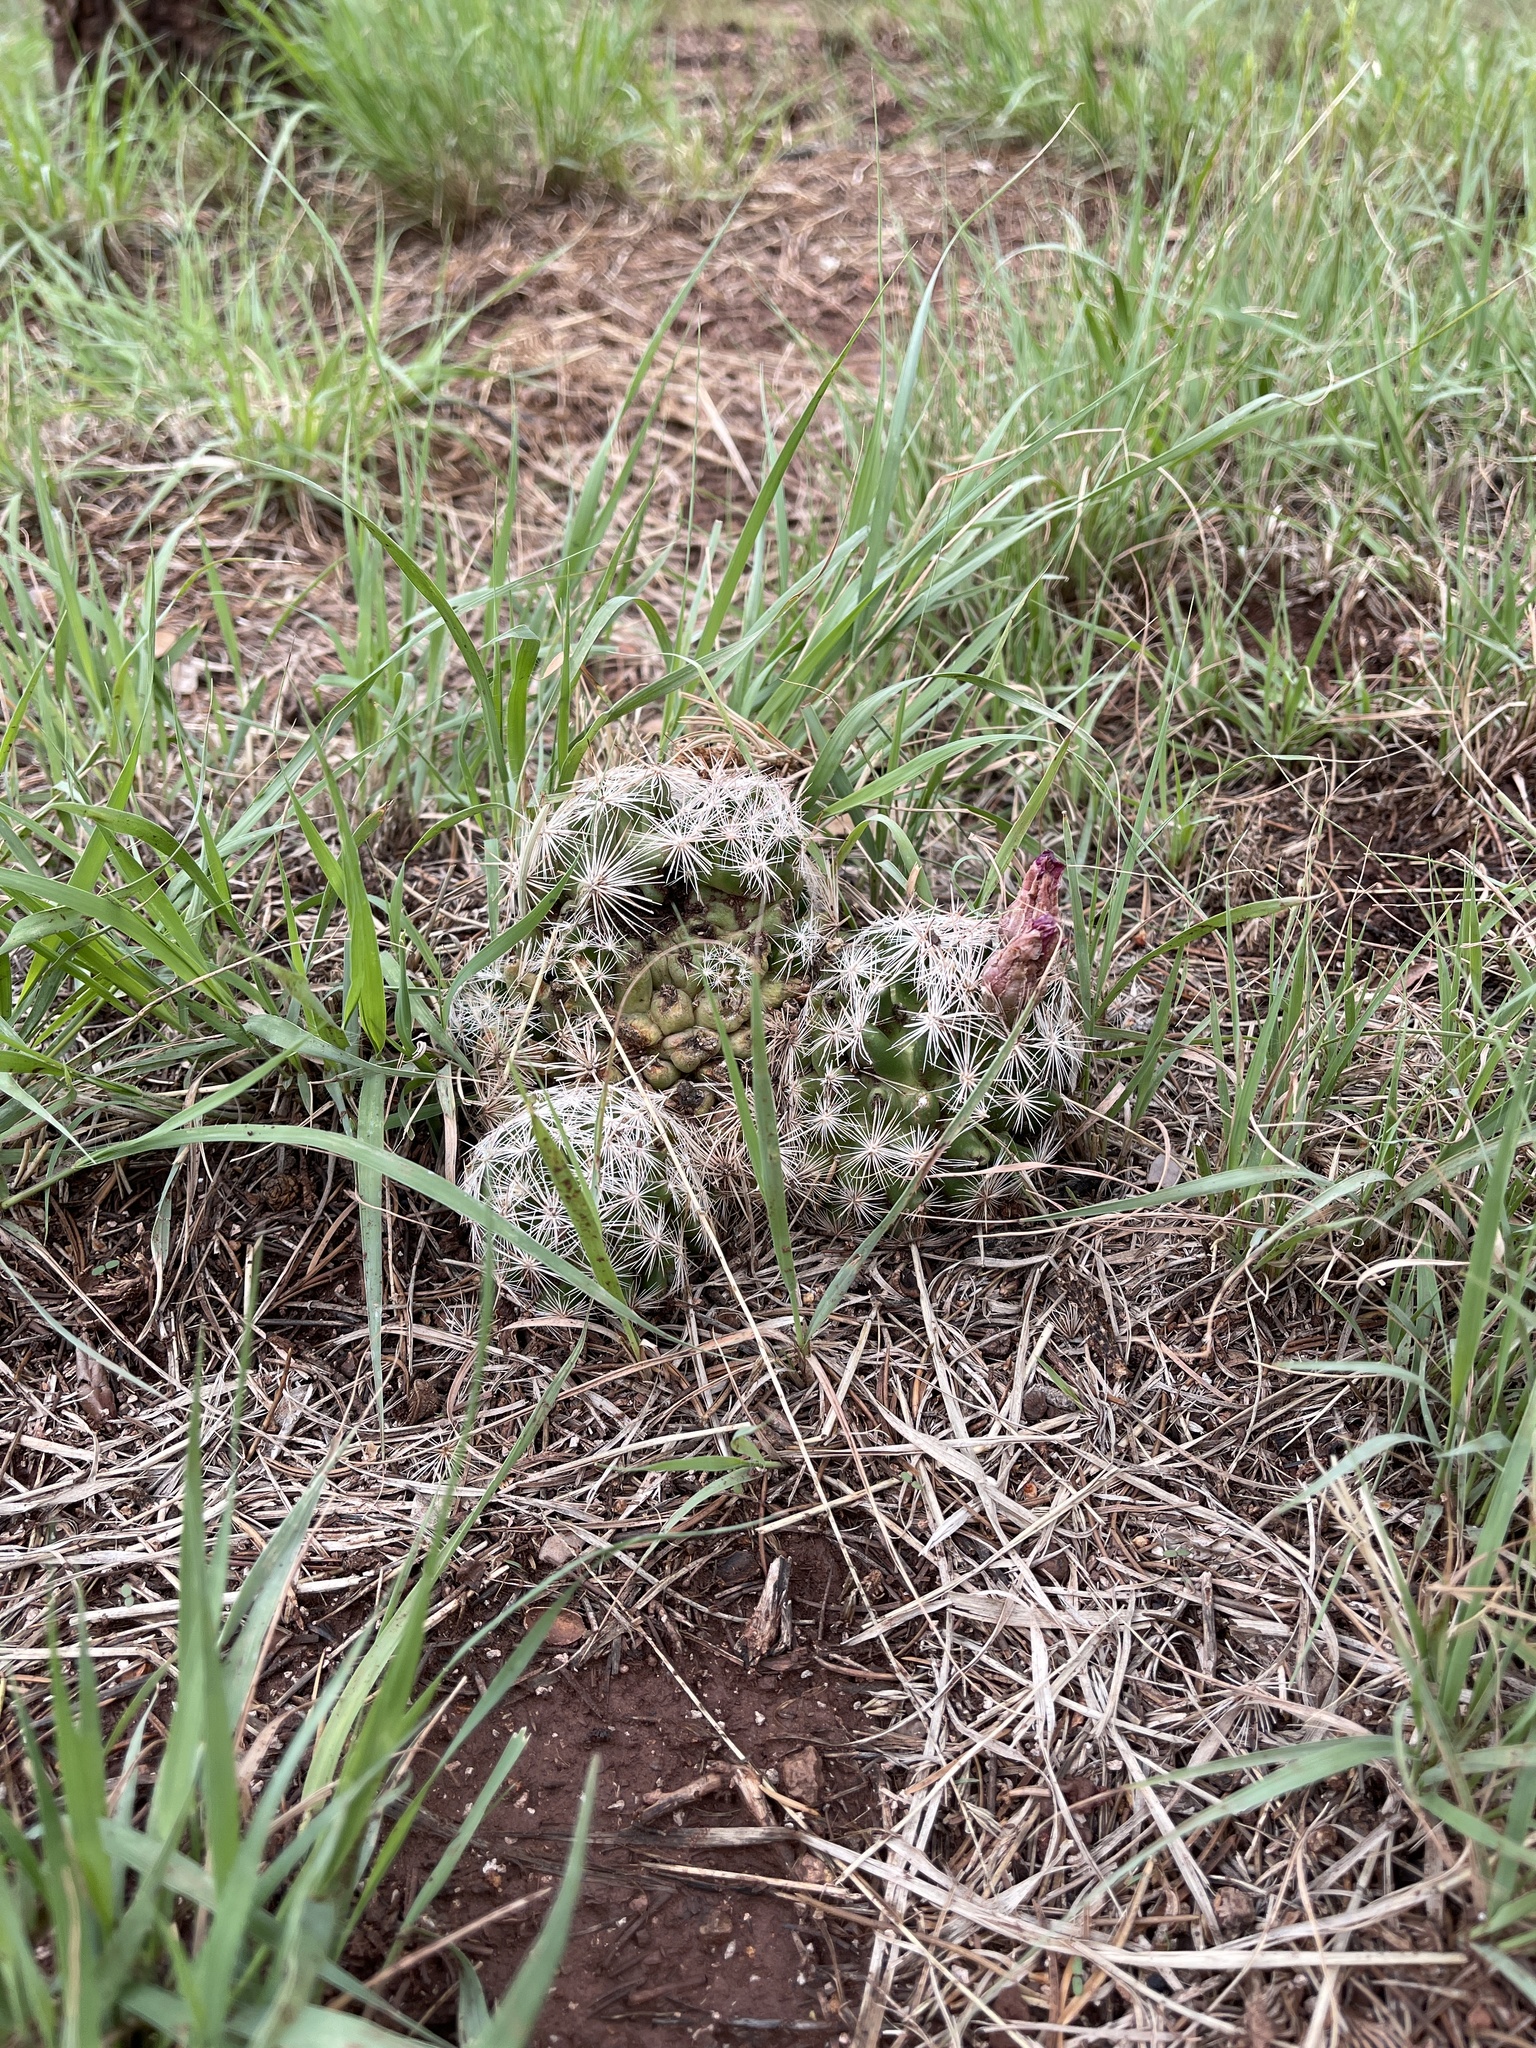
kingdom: Plantae
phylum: Tracheophyta
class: Magnoliopsida
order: Caryophyllales
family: Cactaceae
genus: Pelecyphora
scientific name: Pelecyphora vivipara
